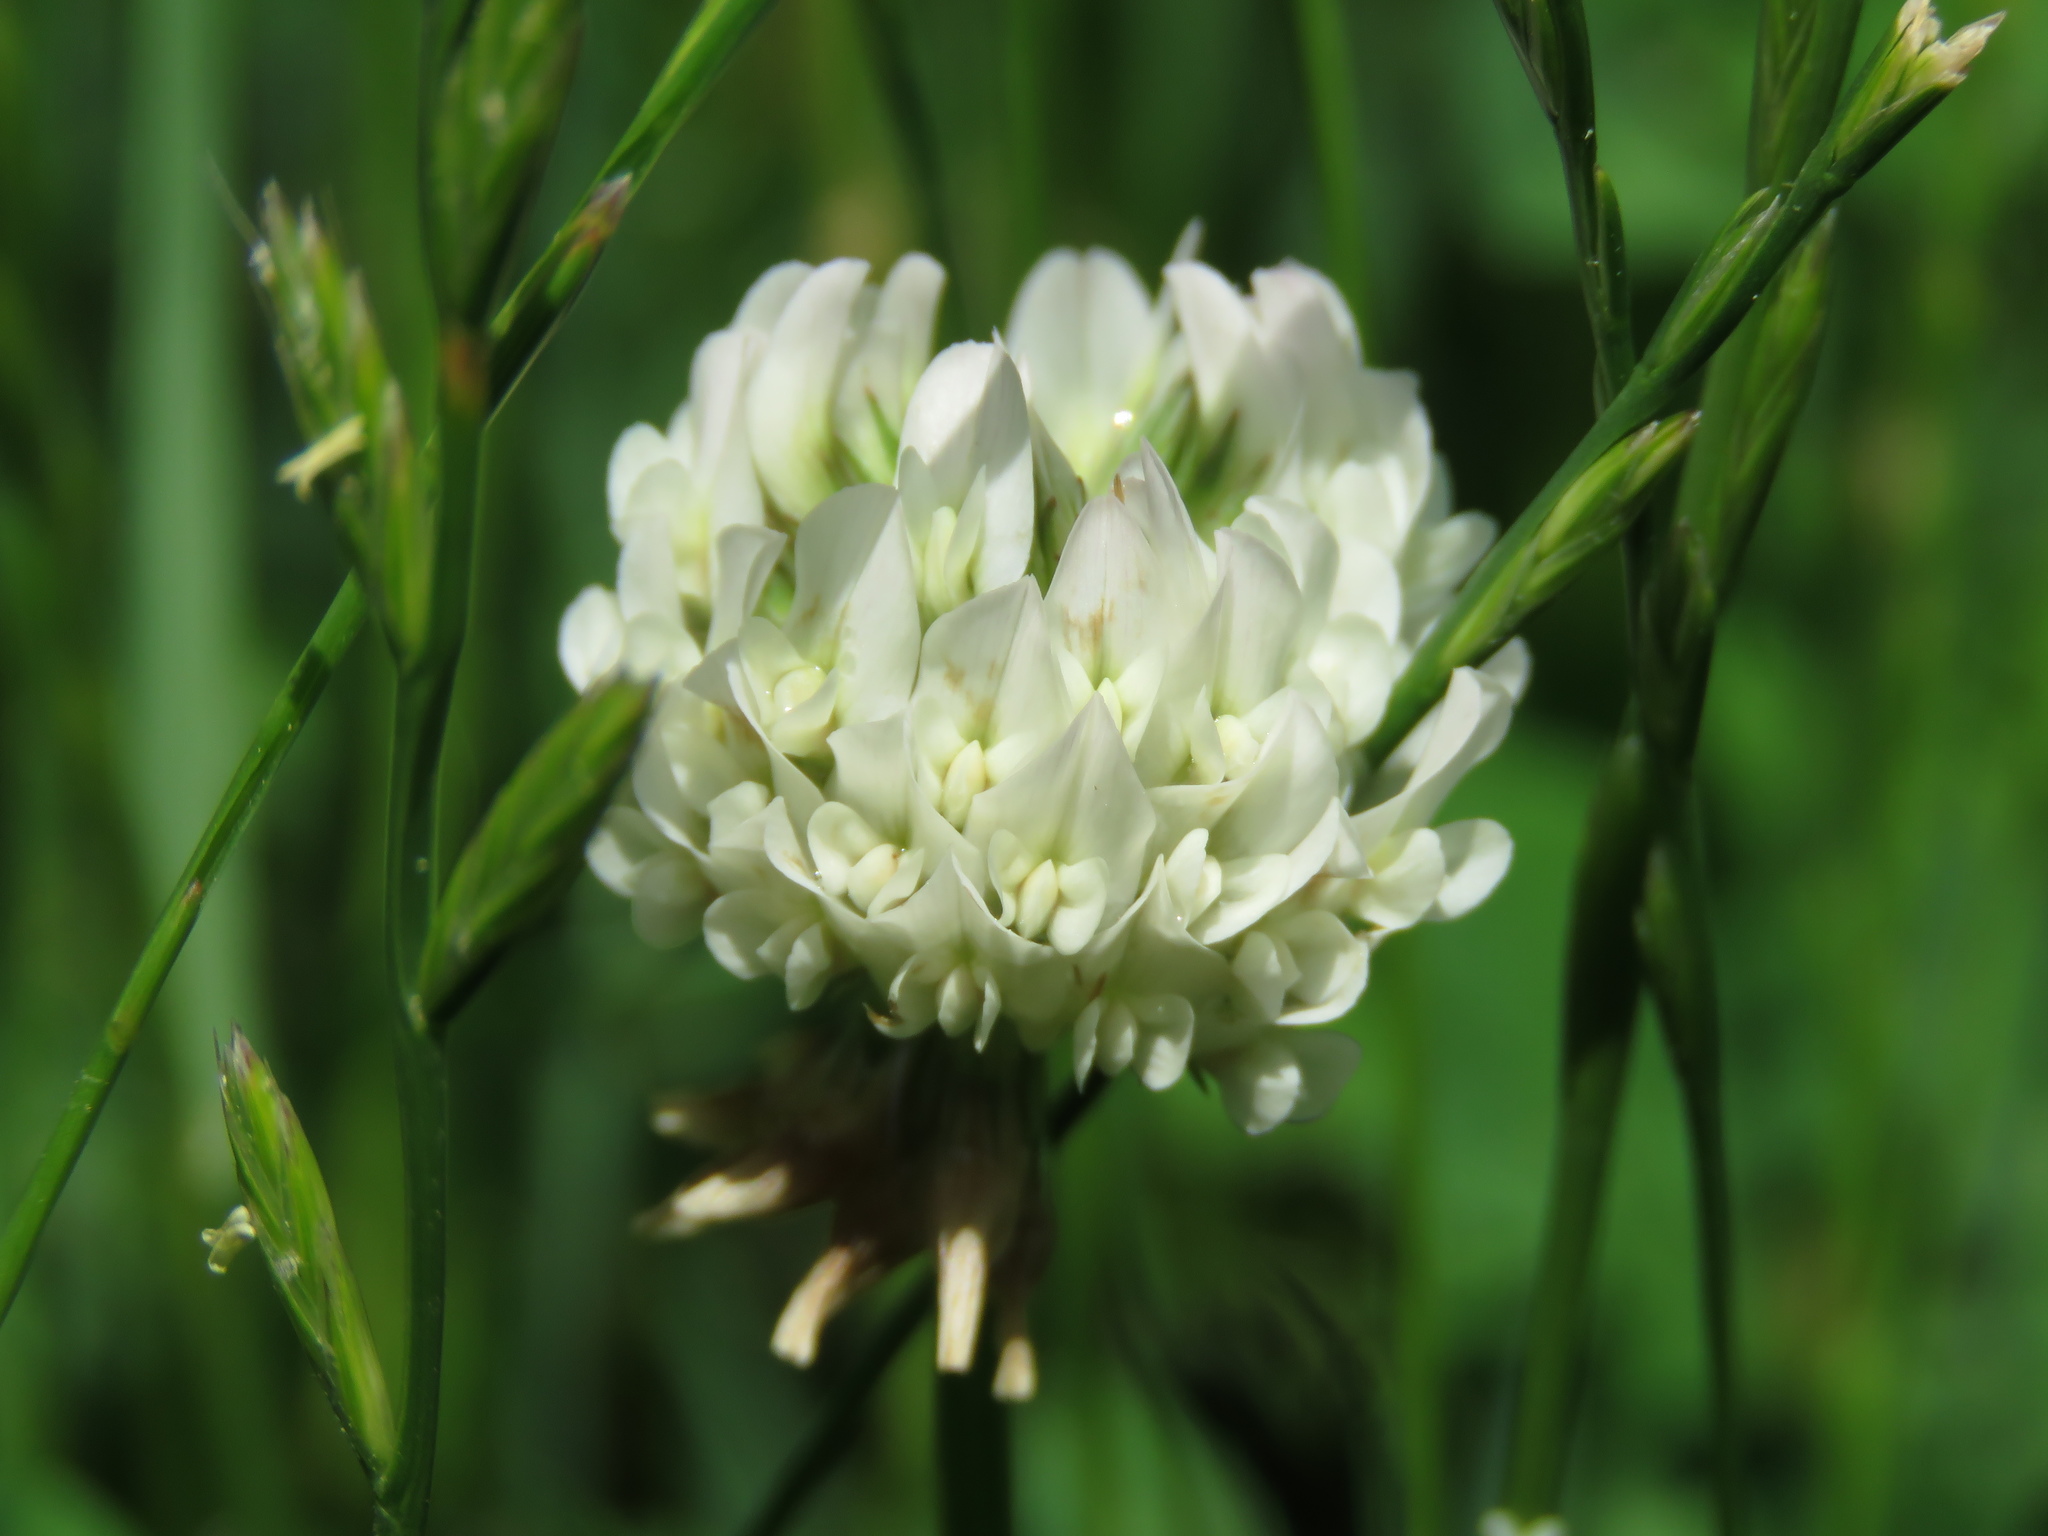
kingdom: Plantae
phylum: Tracheophyta
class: Magnoliopsida
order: Fabales
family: Fabaceae
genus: Trifolium
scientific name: Trifolium repens
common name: White clover
